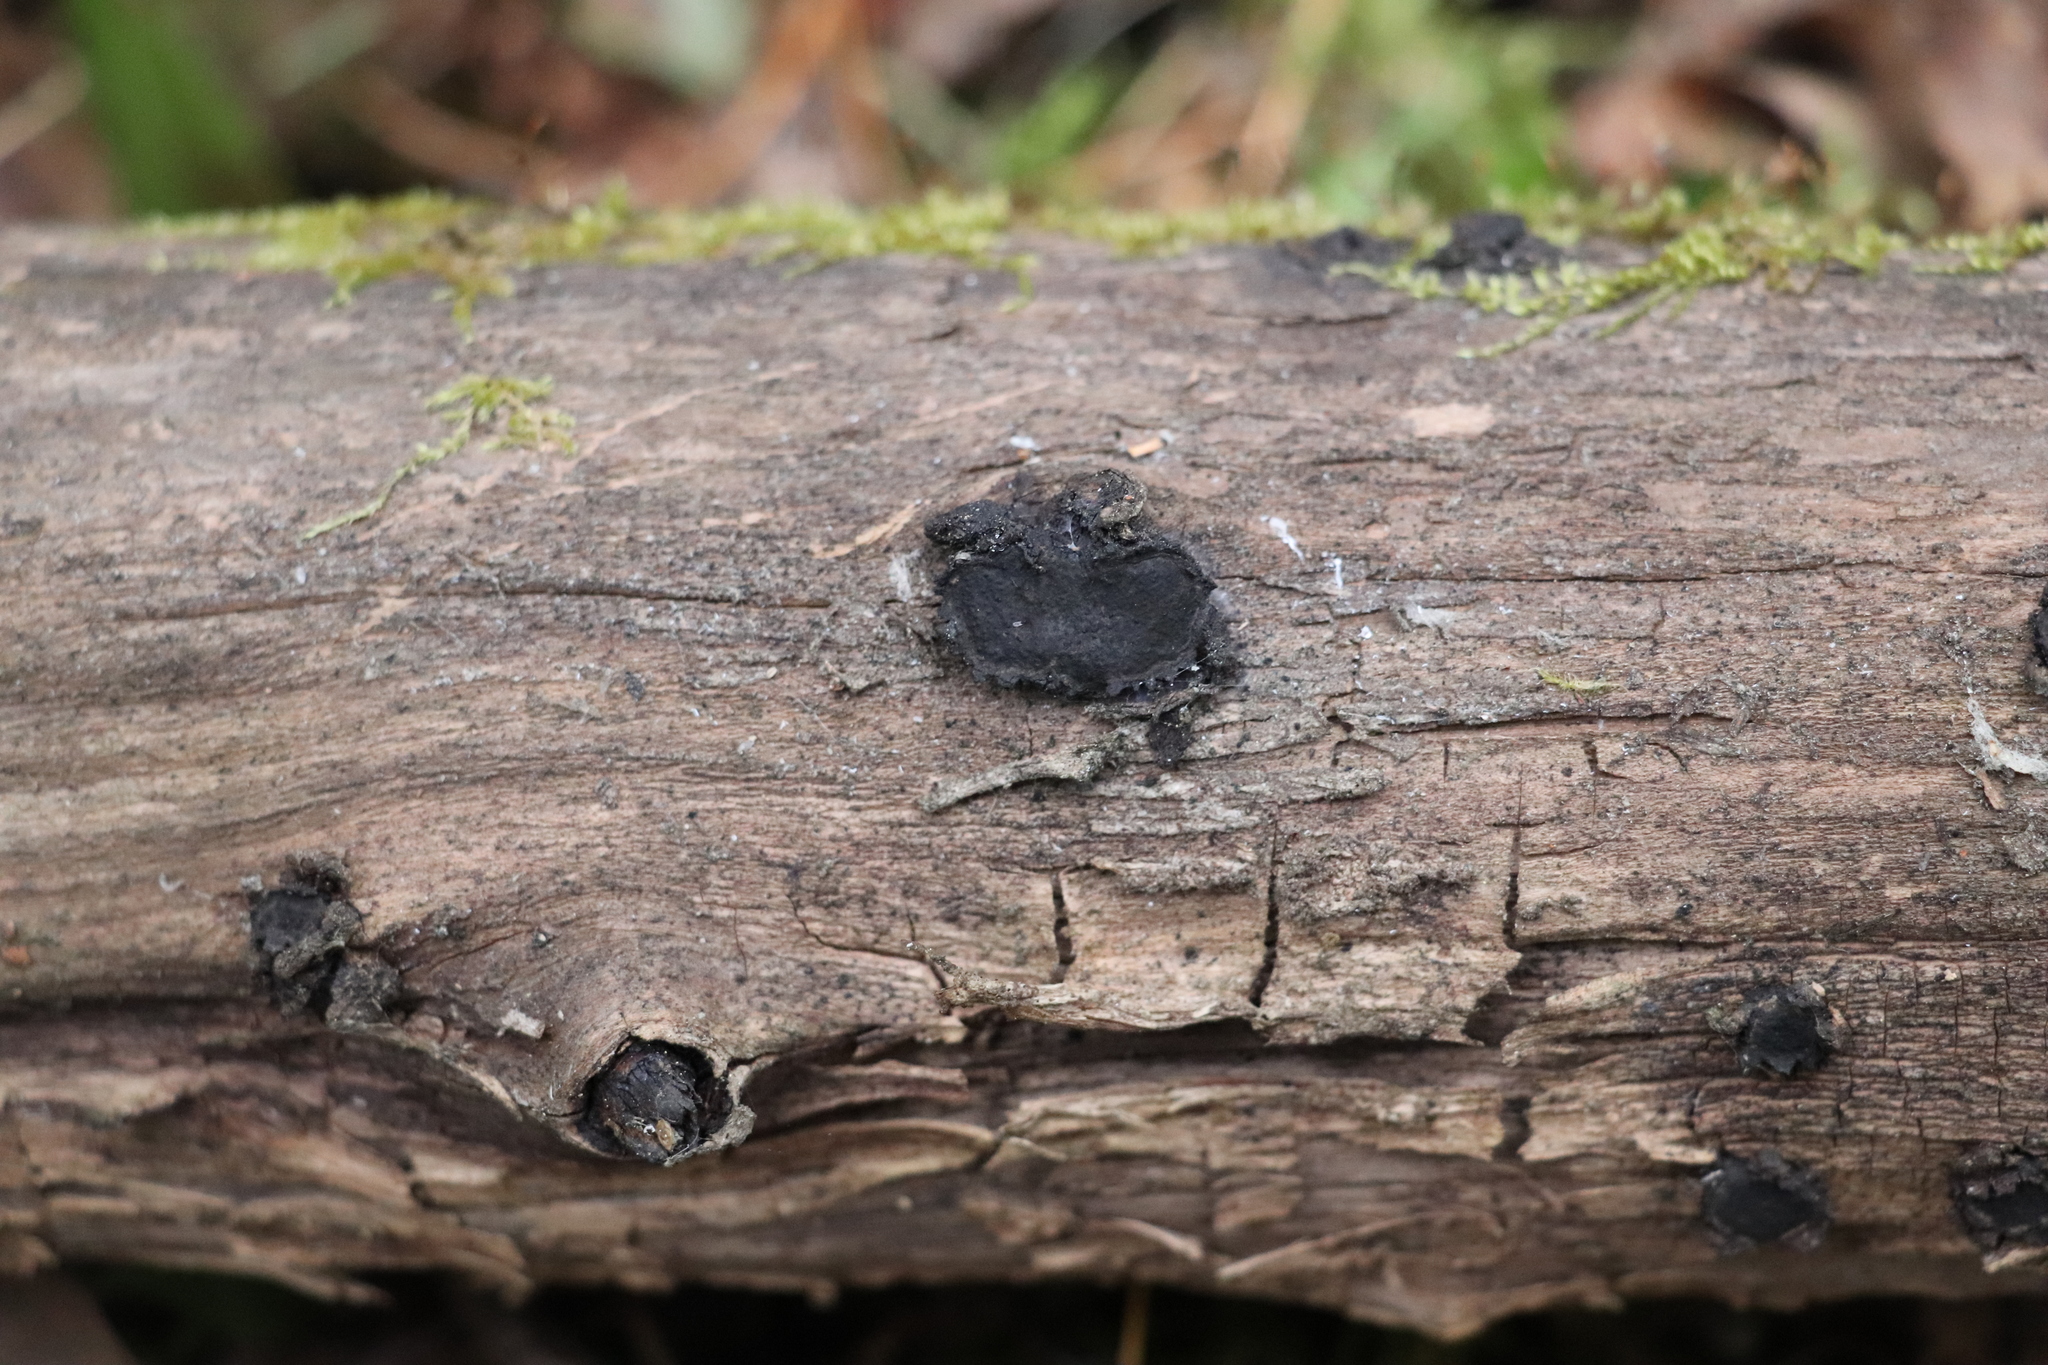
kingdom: Fungi
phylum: Ascomycota
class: Sordariomycetes
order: Xylariales
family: Graphostromataceae
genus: Biscogniauxia
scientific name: Biscogniauxia repanda
